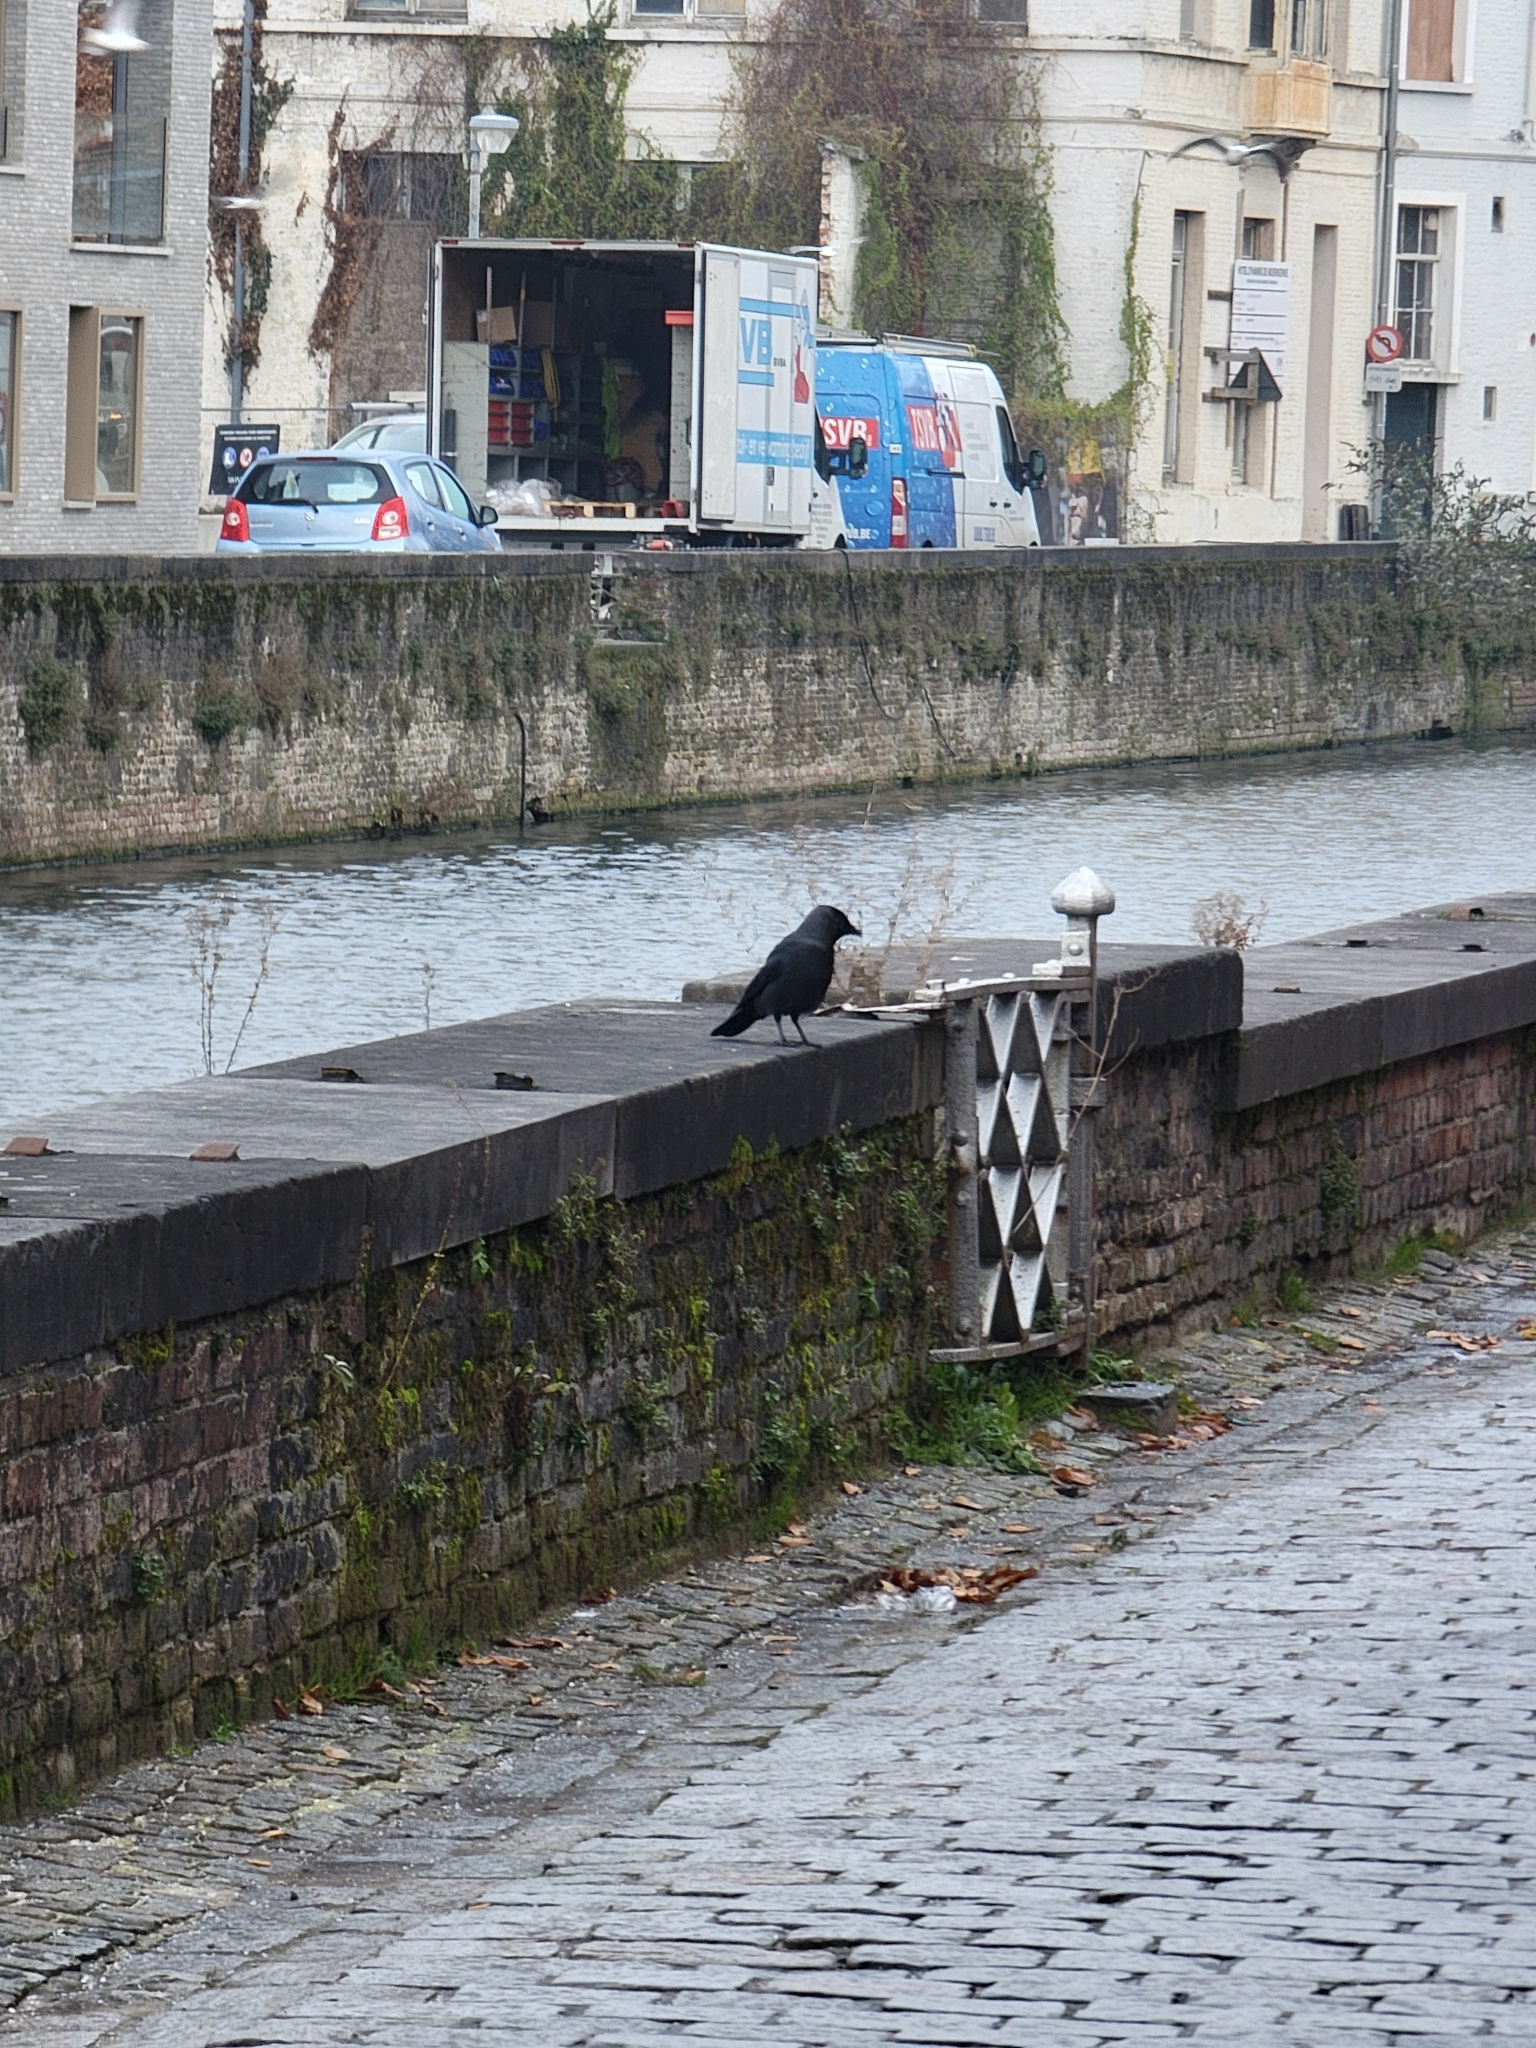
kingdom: Animalia
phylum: Chordata
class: Aves
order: Passeriformes
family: Corvidae
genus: Coloeus
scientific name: Coloeus monedula
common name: Western jackdaw
